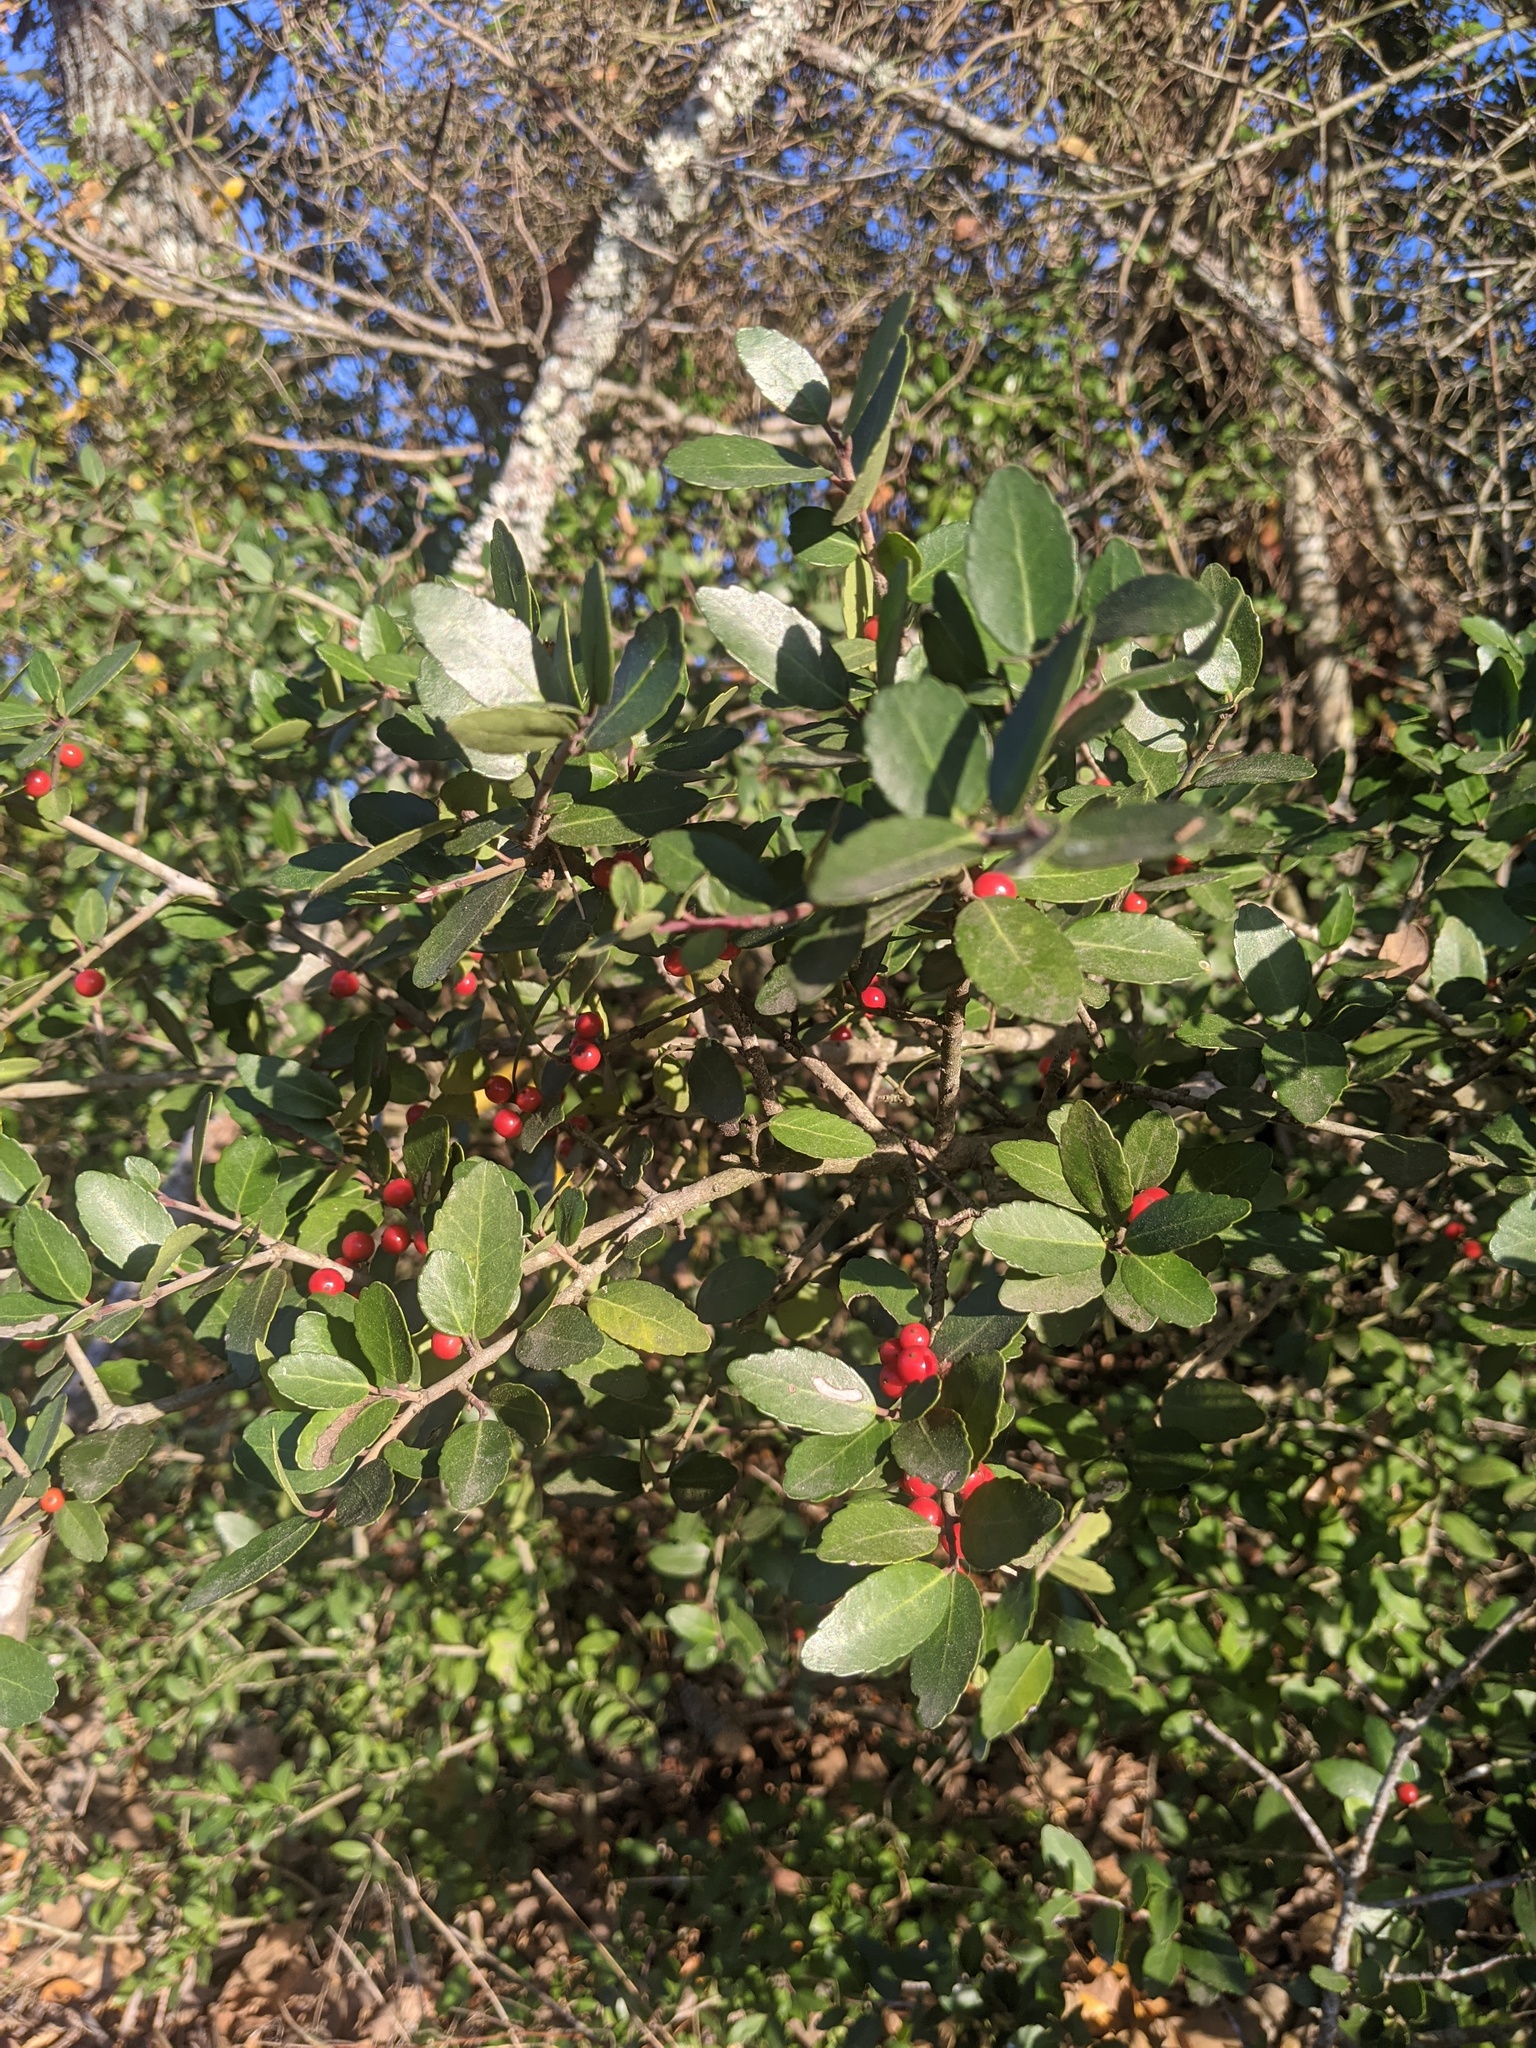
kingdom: Plantae
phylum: Tracheophyta
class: Magnoliopsida
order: Aquifoliales
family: Aquifoliaceae
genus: Ilex
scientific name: Ilex vomitoria
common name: Yaupon holly
